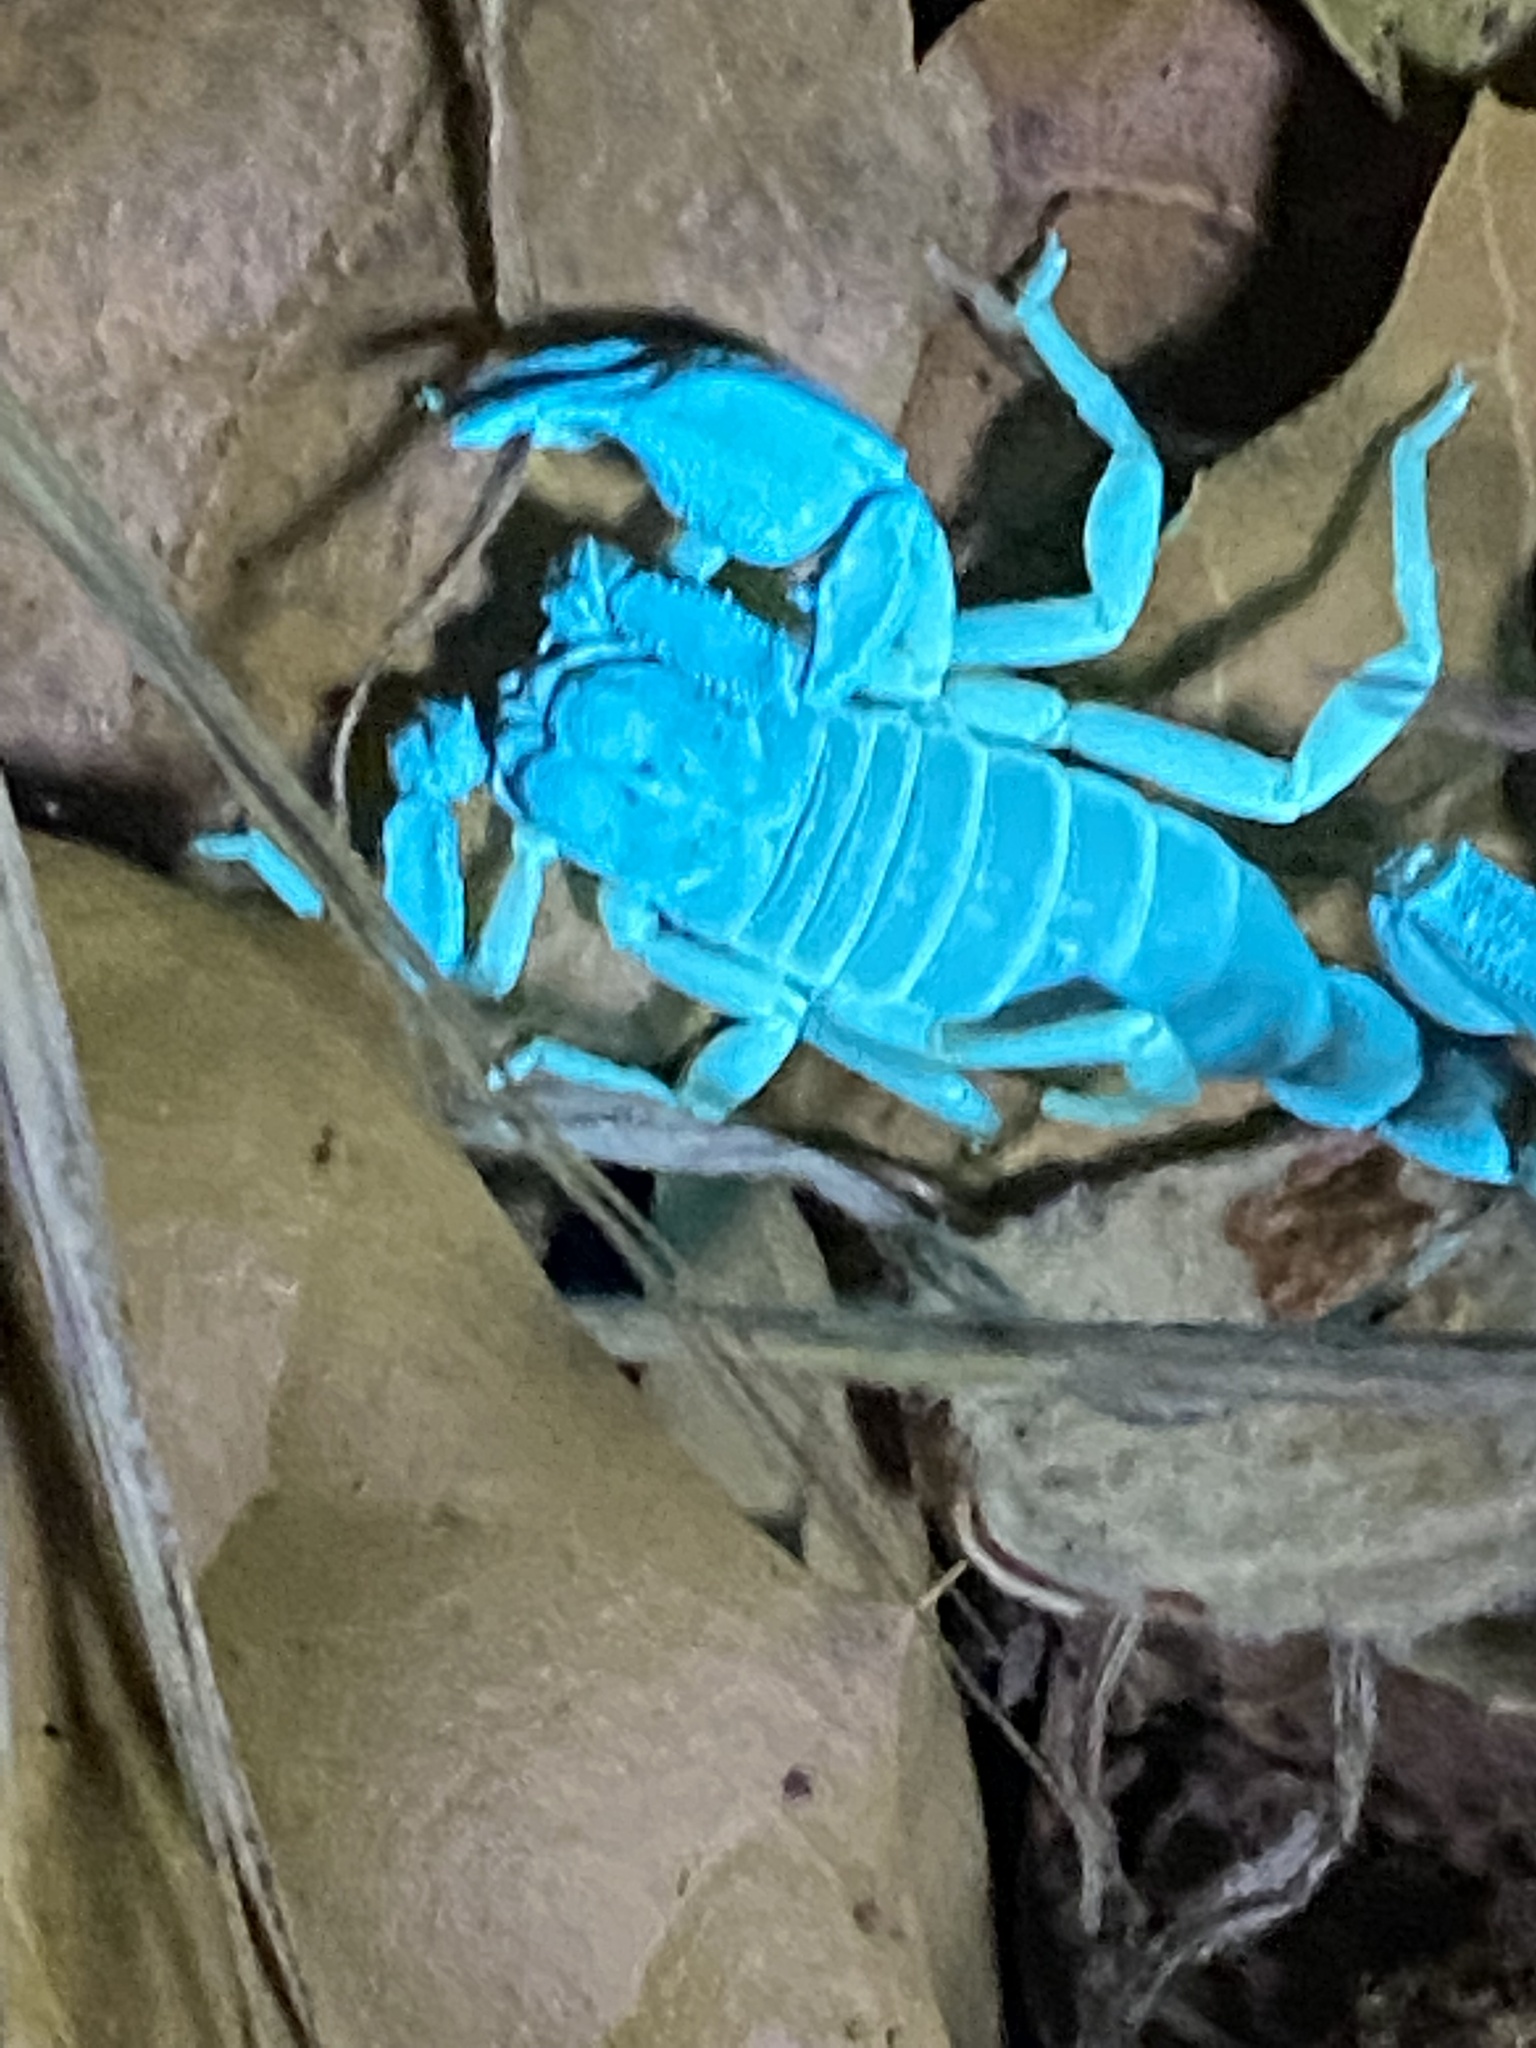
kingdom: Animalia
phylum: Arthropoda
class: Arachnida
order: Scorpiones
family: Chactidae
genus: Uroctonus
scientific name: Uroctonus mordax
